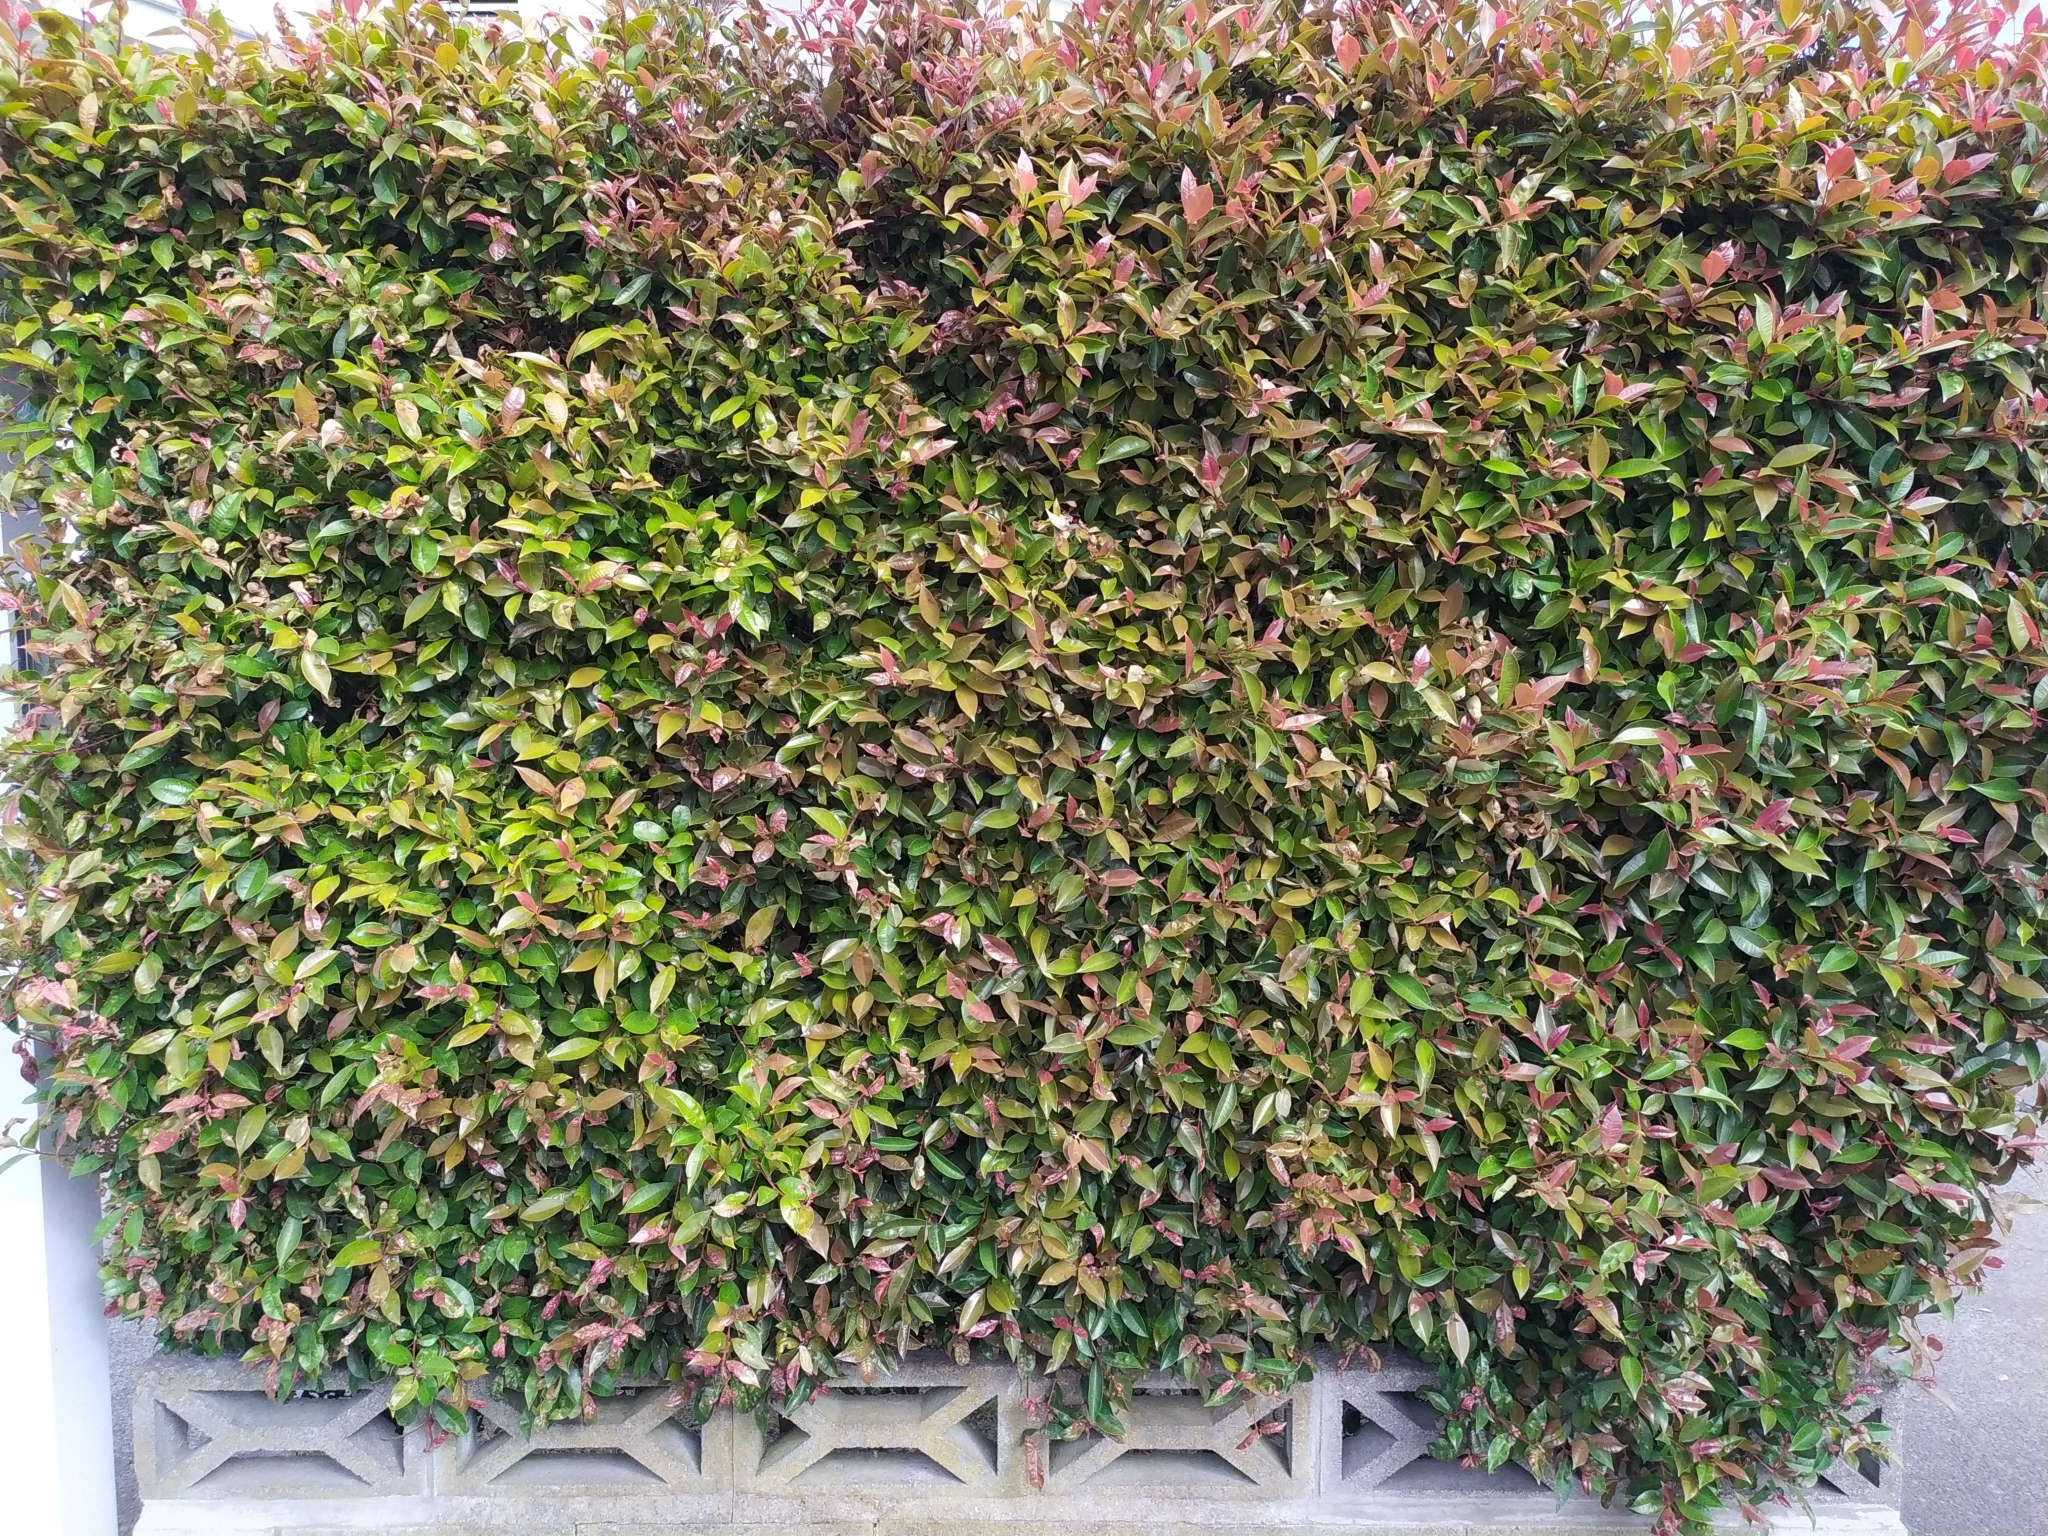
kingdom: Fungi
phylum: Basidiomycota
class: Pucciniomycetes
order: Pucciniales
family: Sphaerophragmiaceae
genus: Austropuccinia
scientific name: Austropuccinia psidii
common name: Myrtle rust
